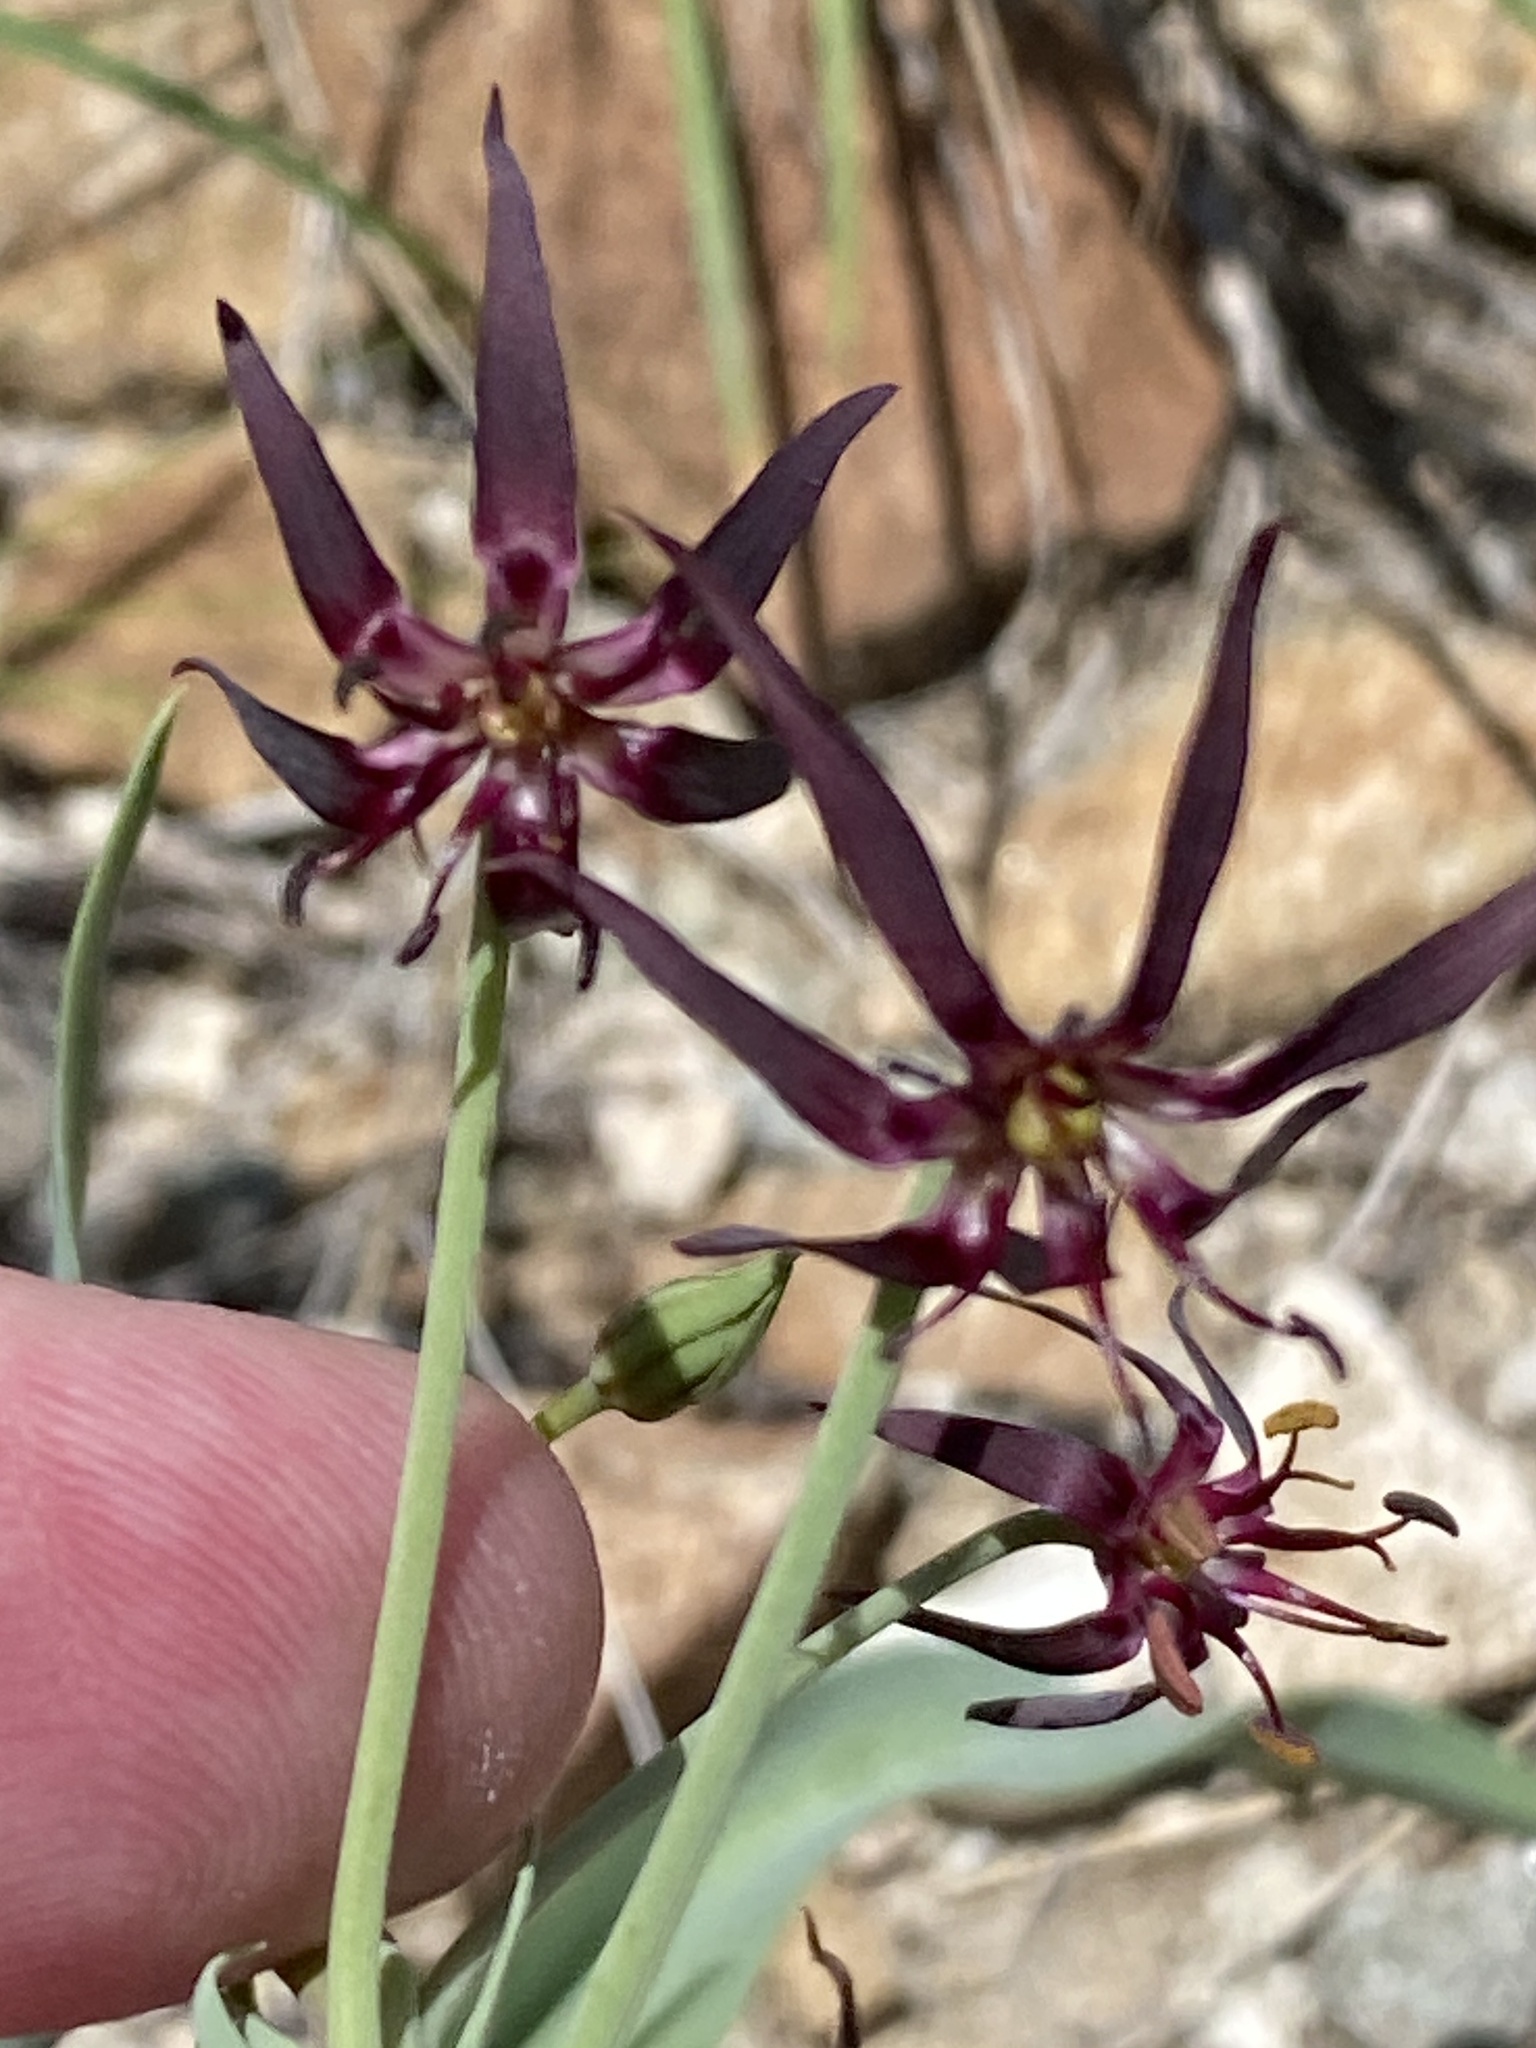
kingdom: Plantae
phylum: Tracheophyta
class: Liliopsida
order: Liliales
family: Colchicaceae
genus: Ornithoglossum
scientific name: Ornithoglossum vulgare
